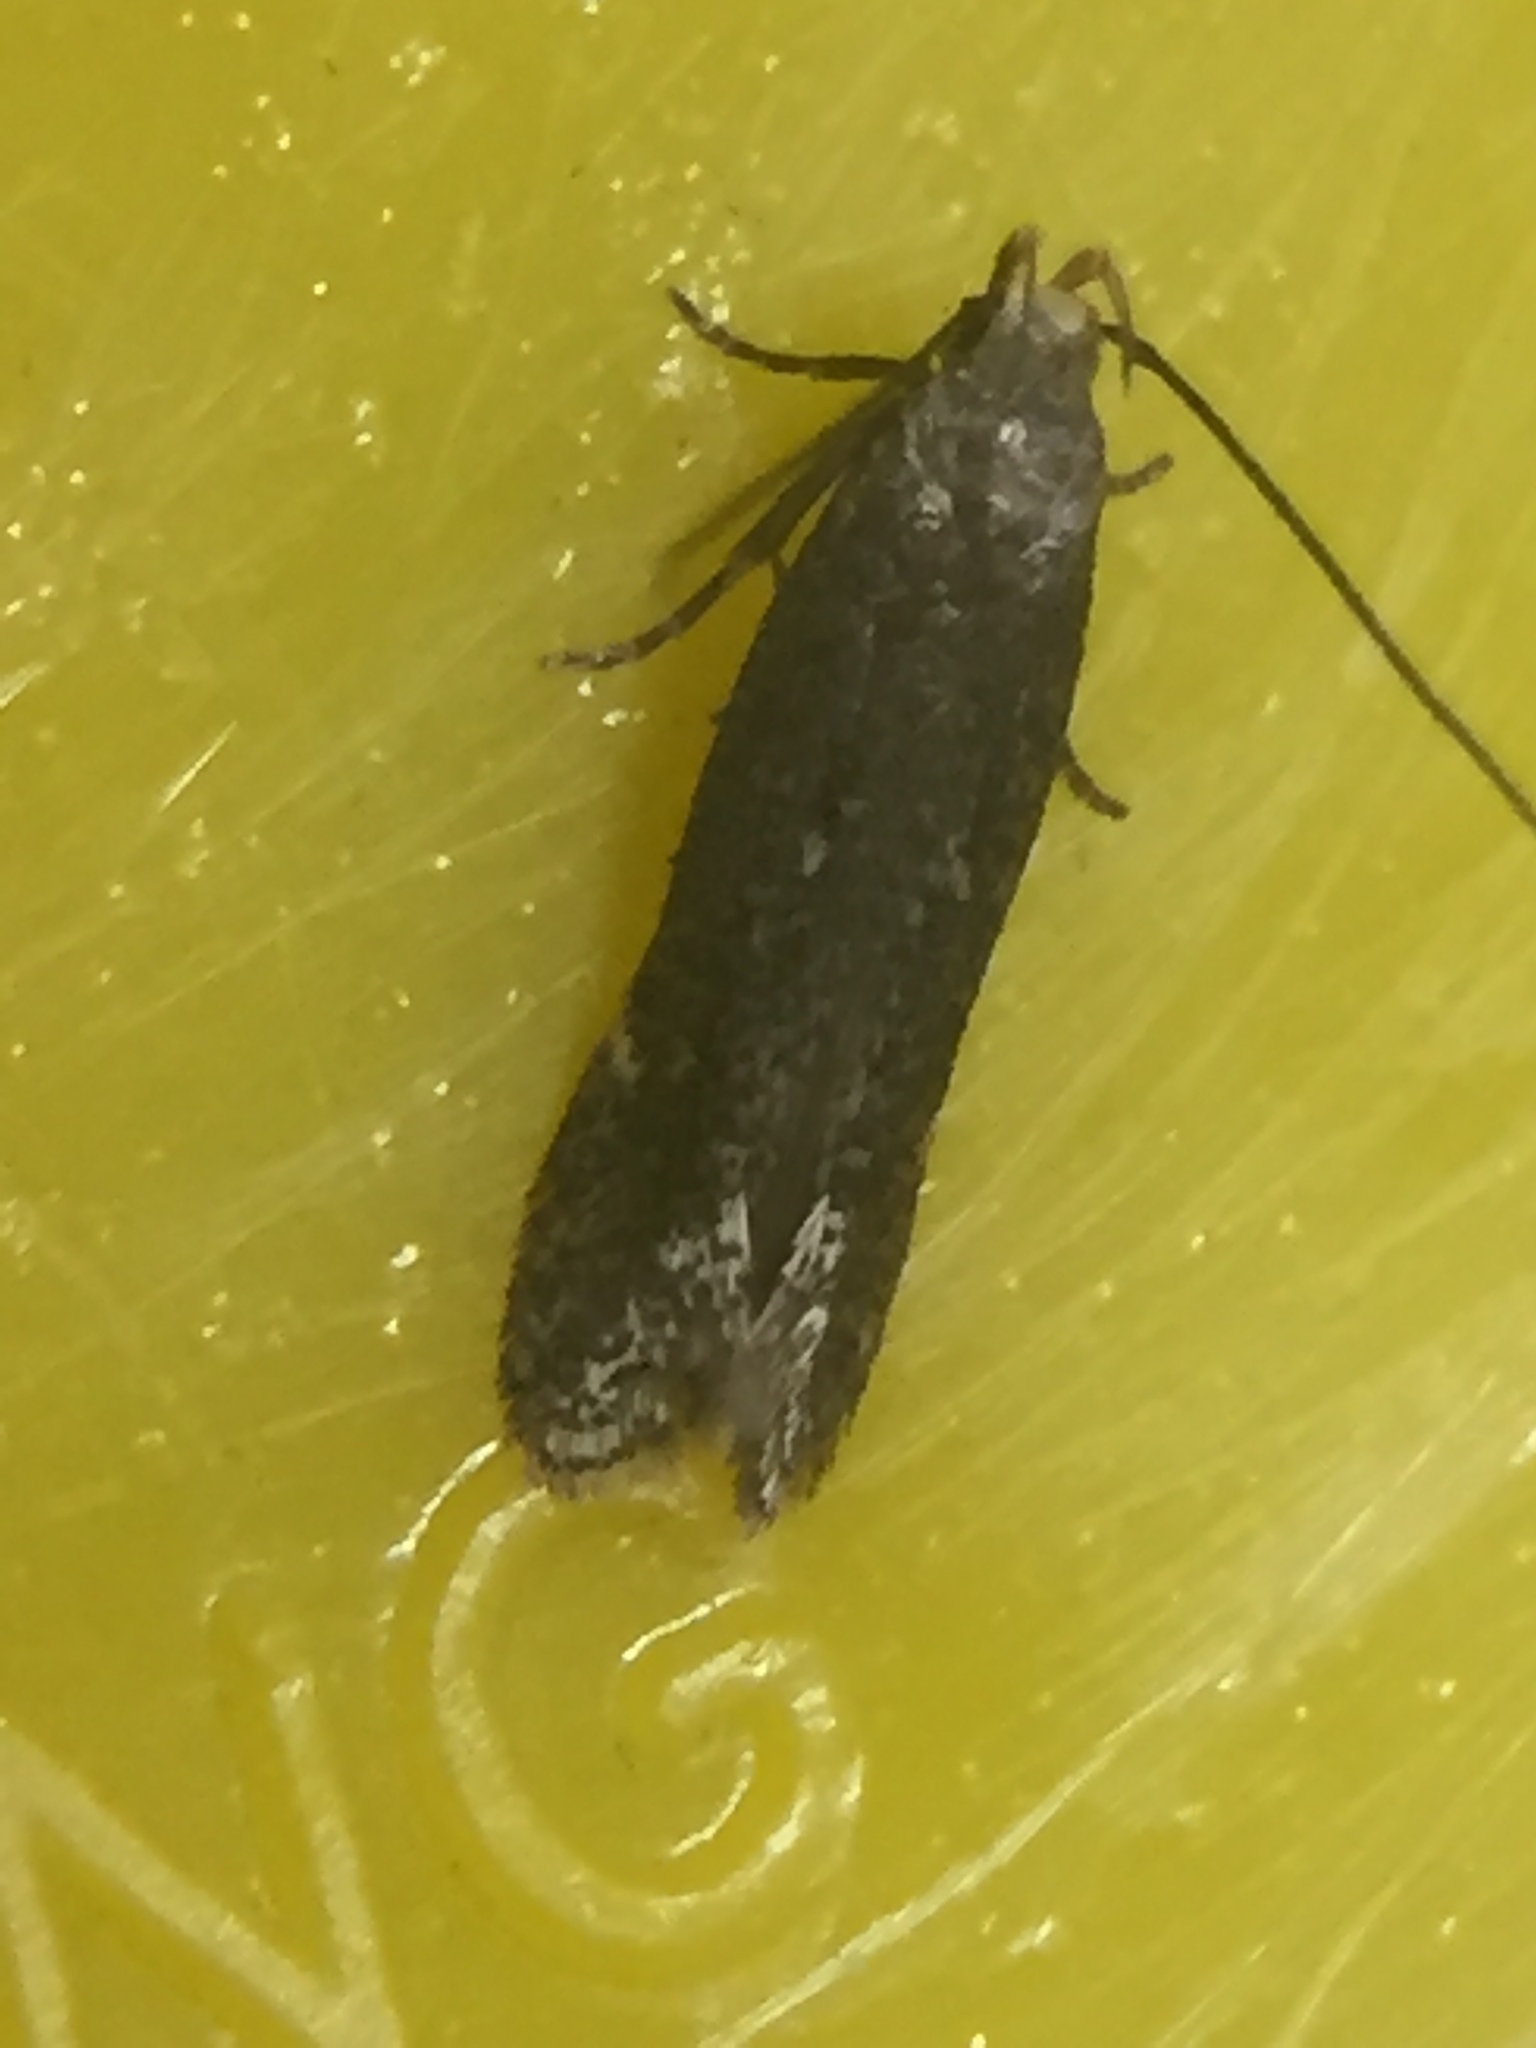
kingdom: Animalia
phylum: Arthropoda
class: Insecta
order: Lepidoptera
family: Gelechiidae
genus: Bilobata
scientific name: Bilobata subsecivella
